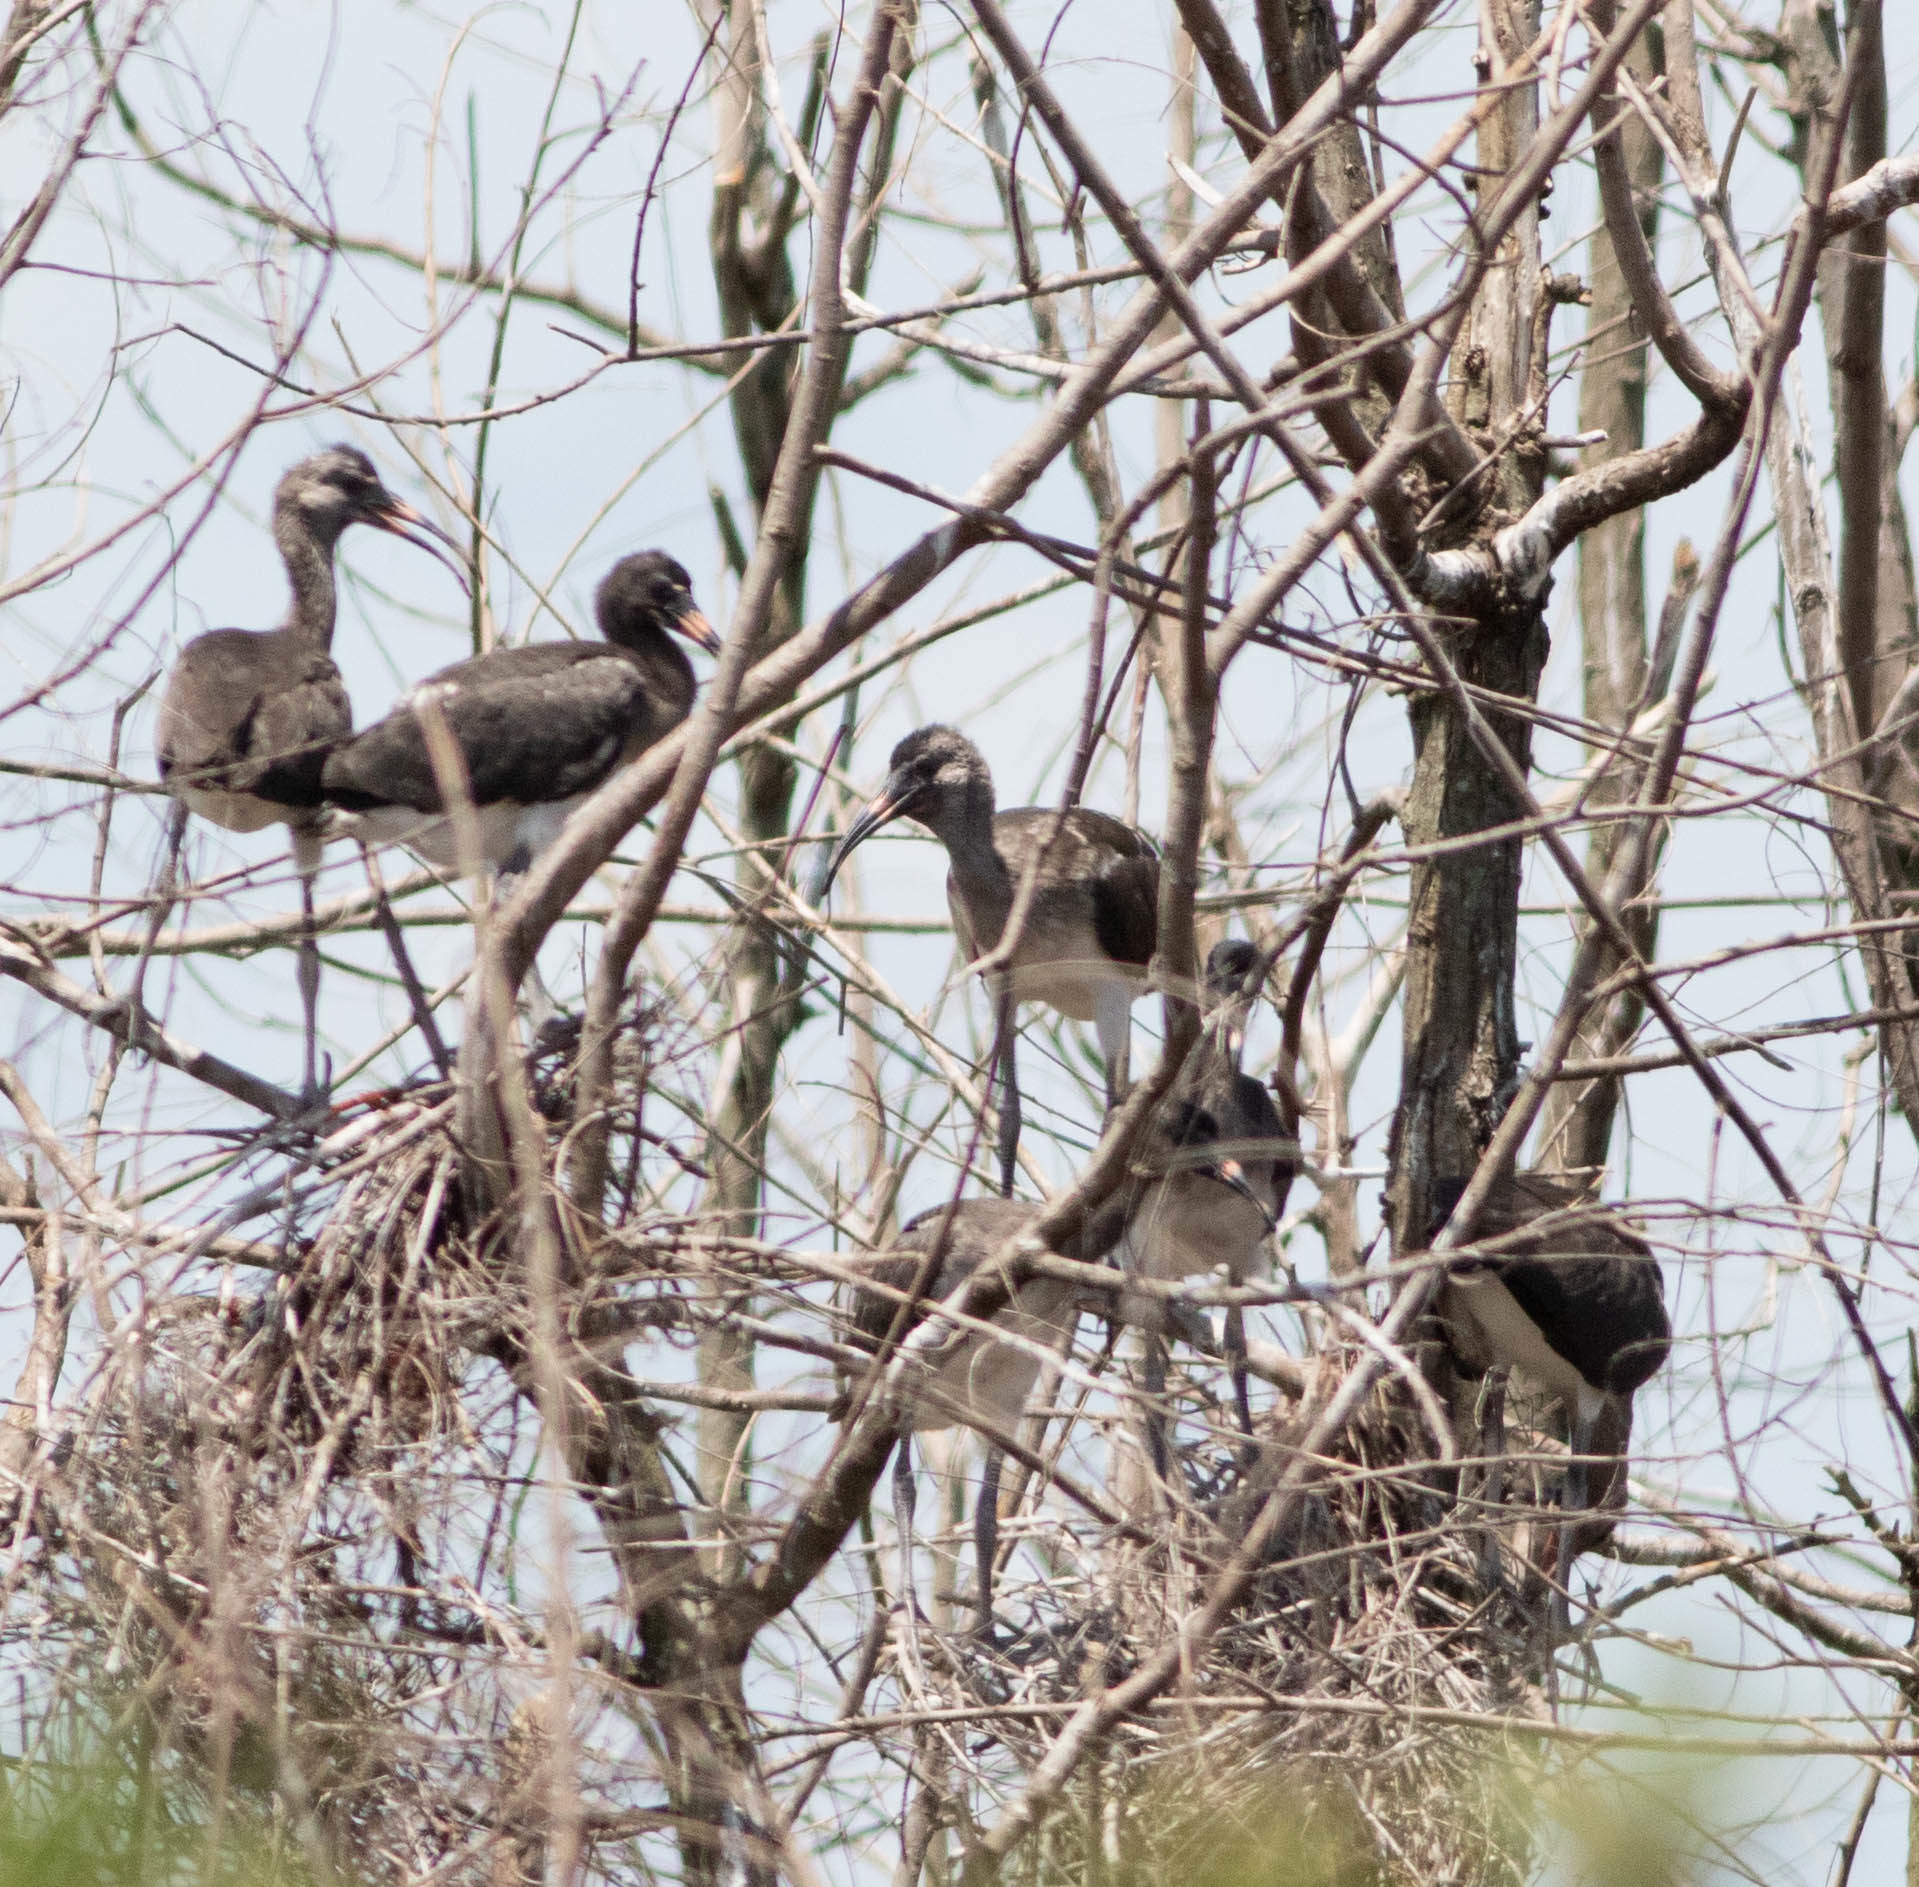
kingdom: Animalia
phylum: Chordata
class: Aves
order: Pelecaniformes
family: Threskiornithidae
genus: Eudocimus
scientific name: Eudocimus albus
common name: White ibis
